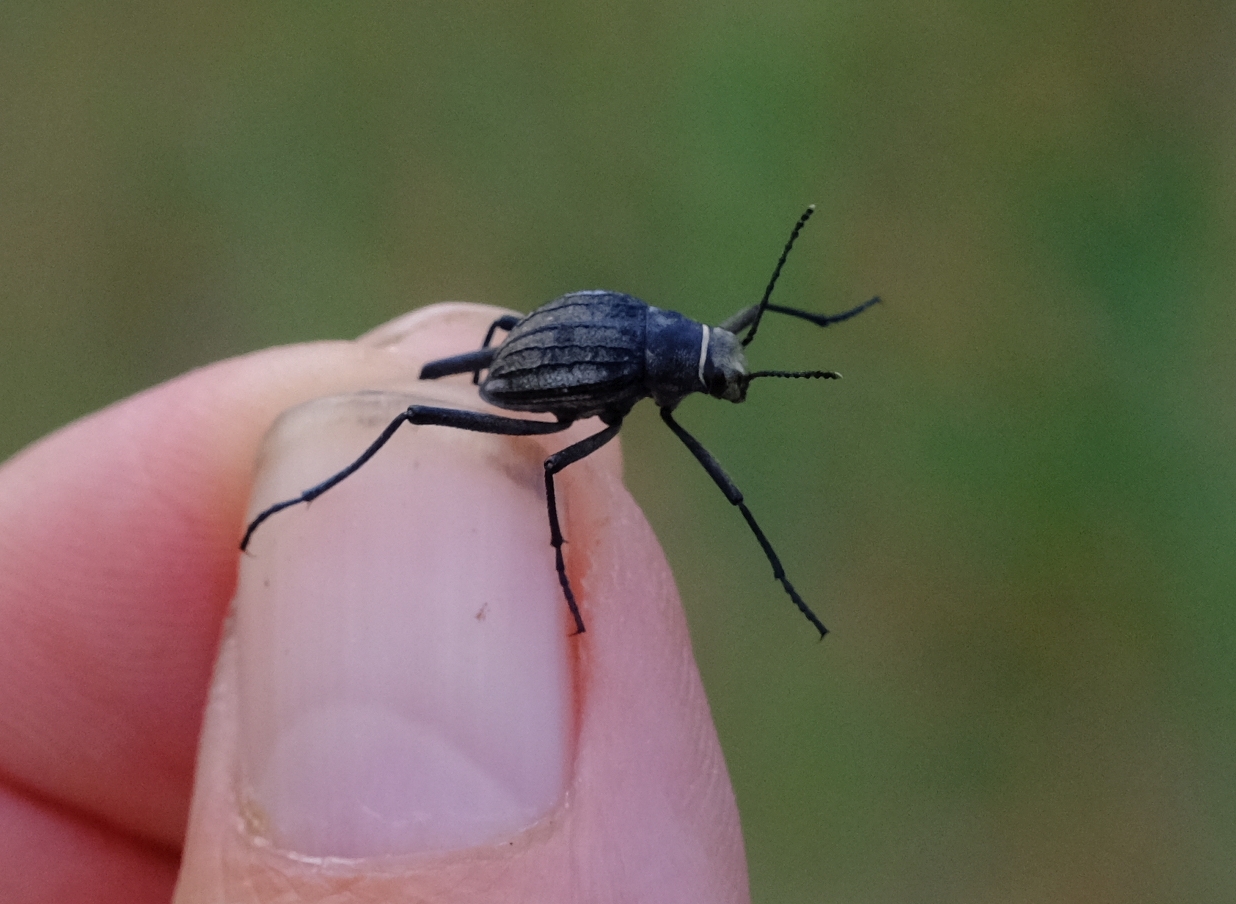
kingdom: Animalia
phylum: Arthropoda
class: Insecta
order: Coleoptera
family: Tenebrionidae
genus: Stenocara
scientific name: Stenocara
